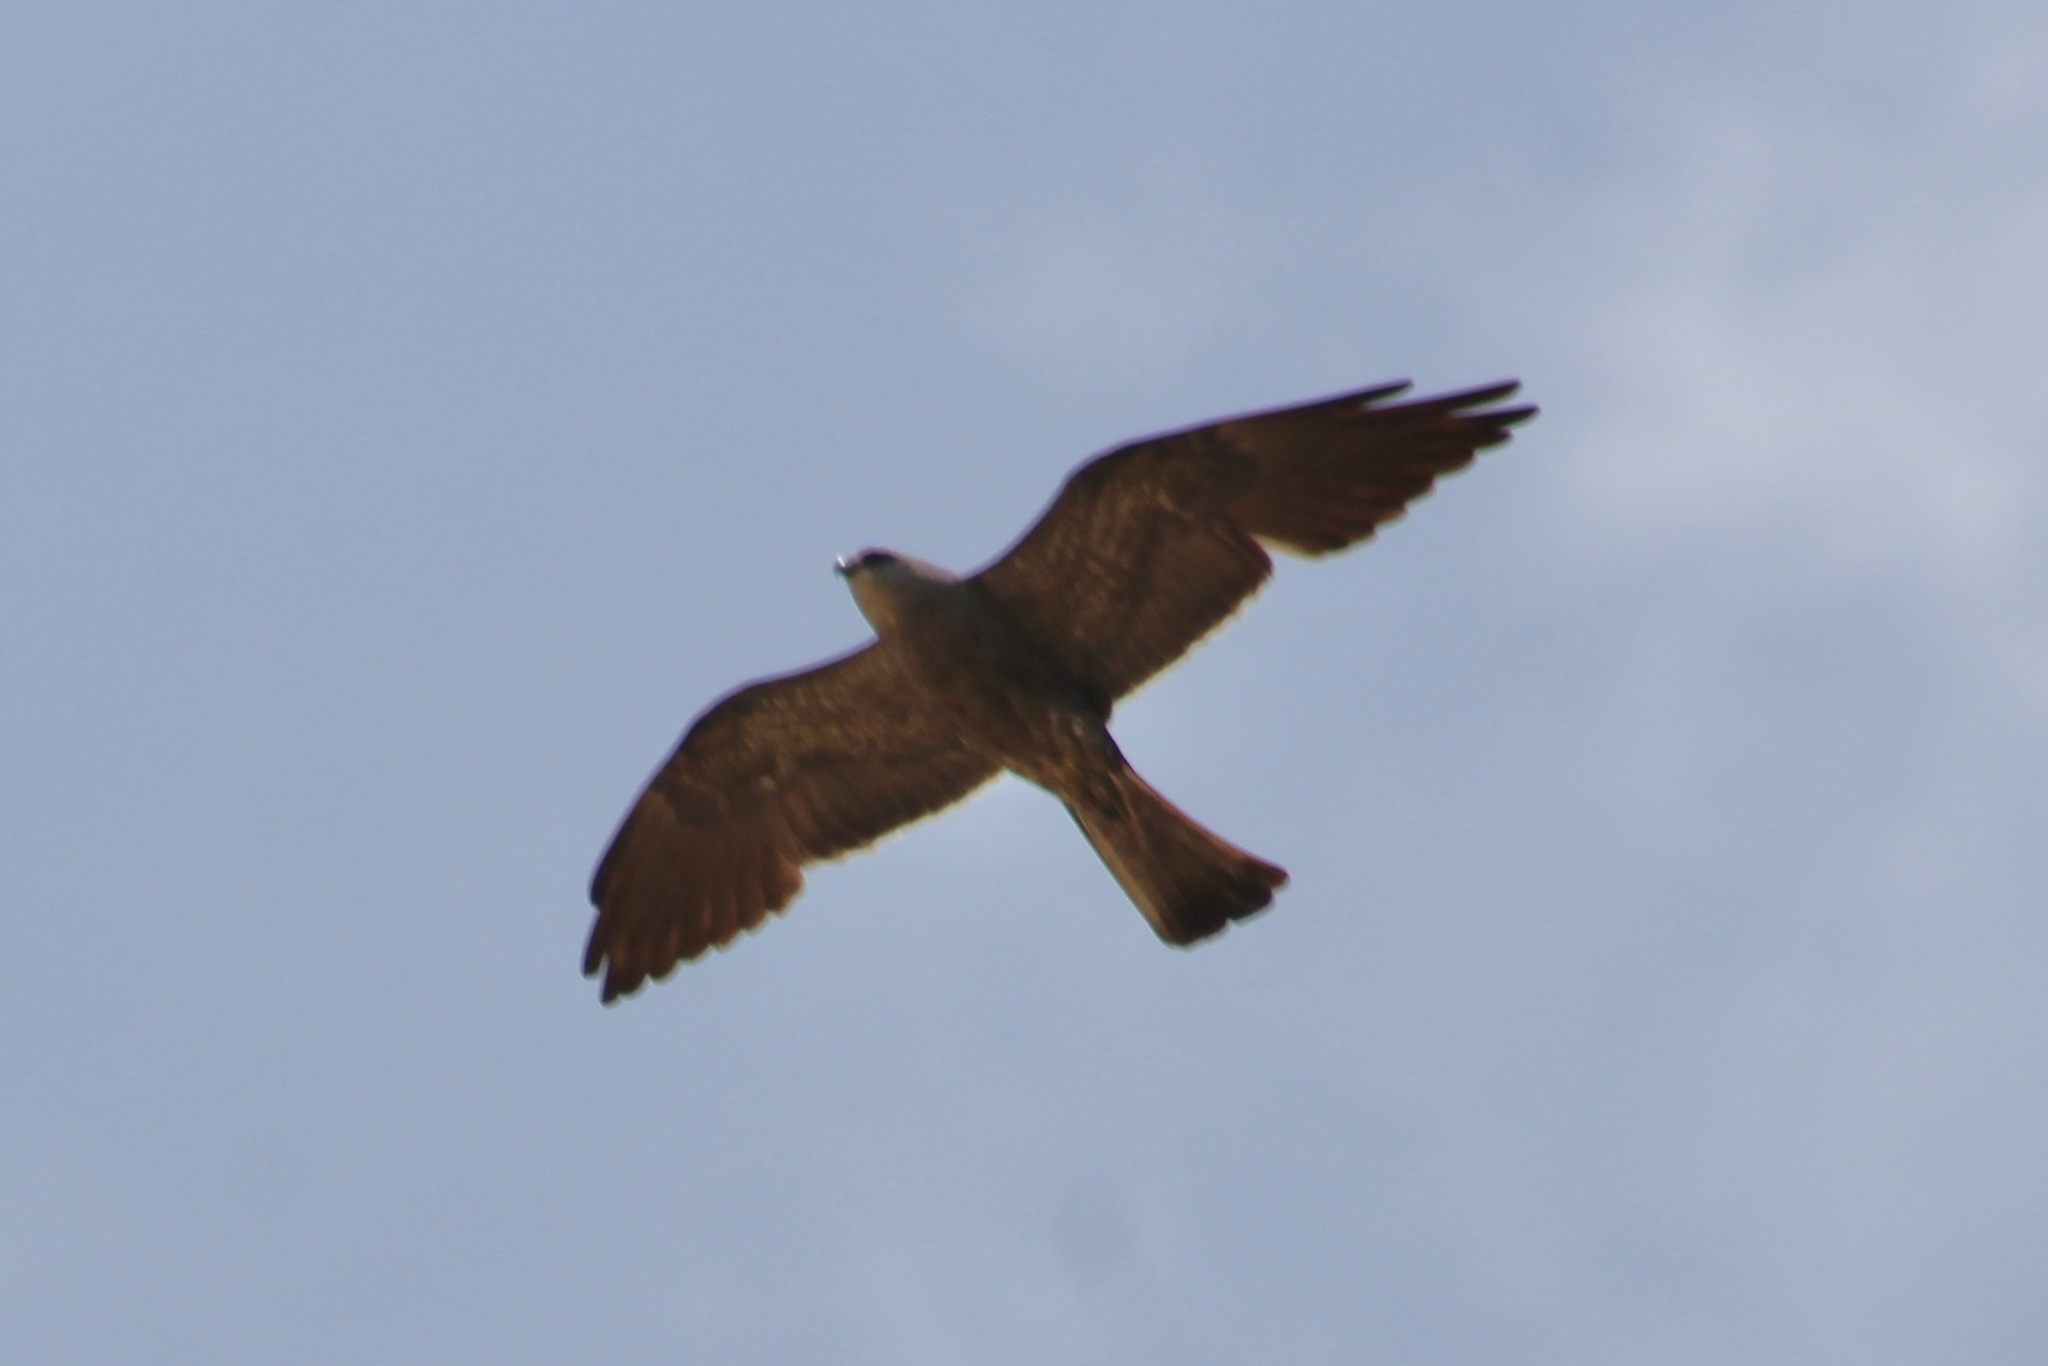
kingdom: Animalia
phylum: Chordata
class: Aves
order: Accipitriformes
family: Accipitridae
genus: Ictinia
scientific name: Ictinia mississippiensis
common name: Mississippi kite
